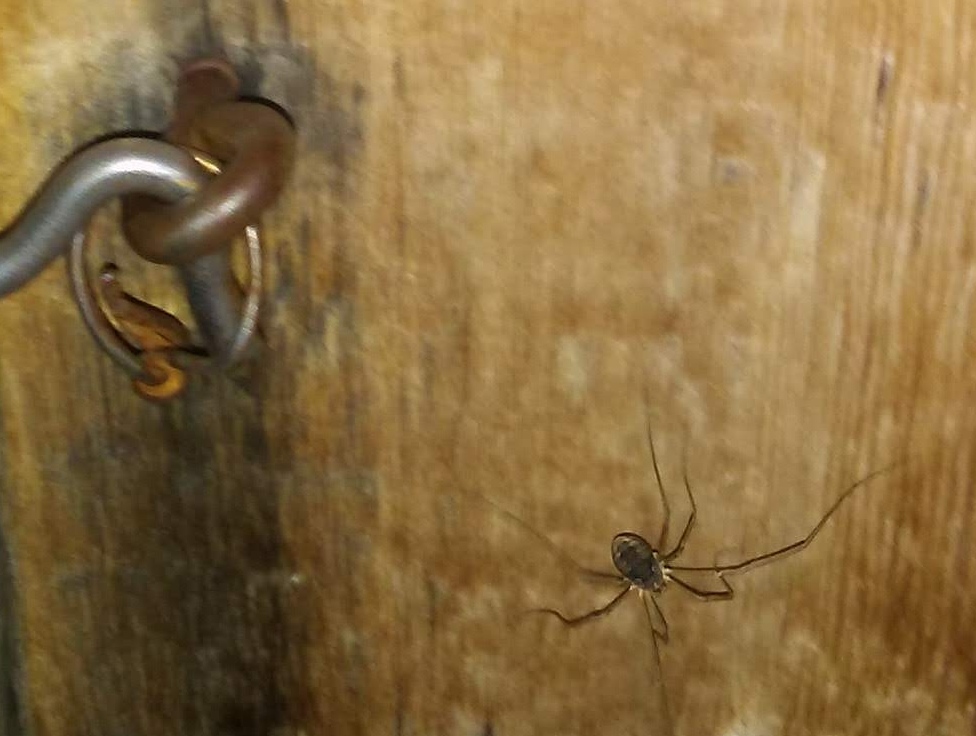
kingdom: Animalia
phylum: Arthropoda
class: Arachnida
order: Opiliones
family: Phalangiidae
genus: Phalangium
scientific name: Phalangium opilio
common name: Daddy longleg
